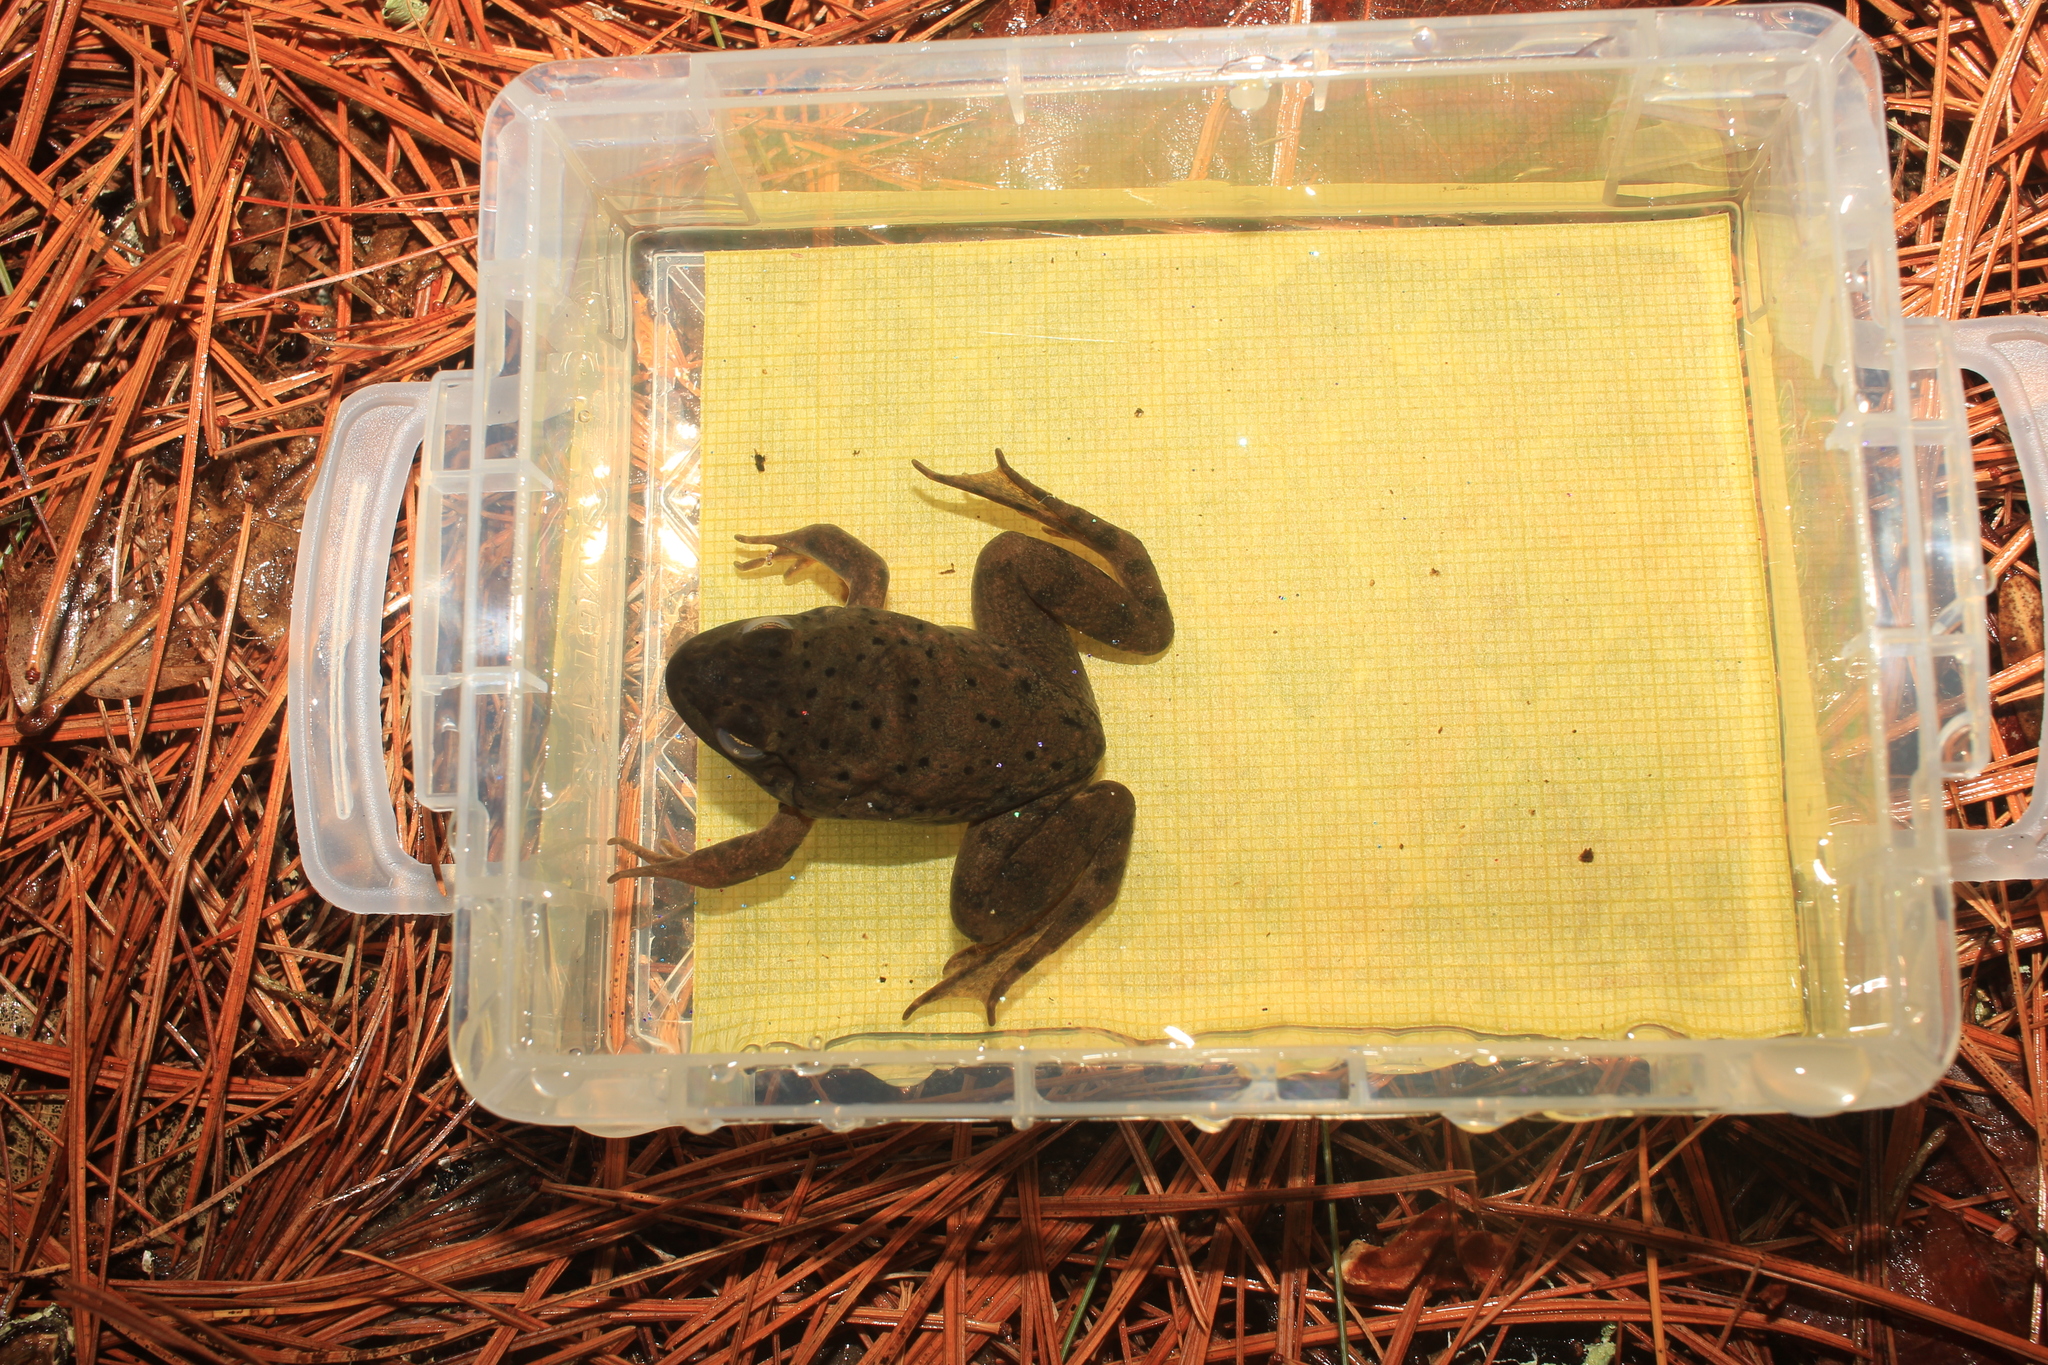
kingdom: Animalia
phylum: Chordata
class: Amphibia
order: Anura
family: Ranidae
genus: Lithobates
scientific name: Lithobates catesbeianus
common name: American bullfrog
